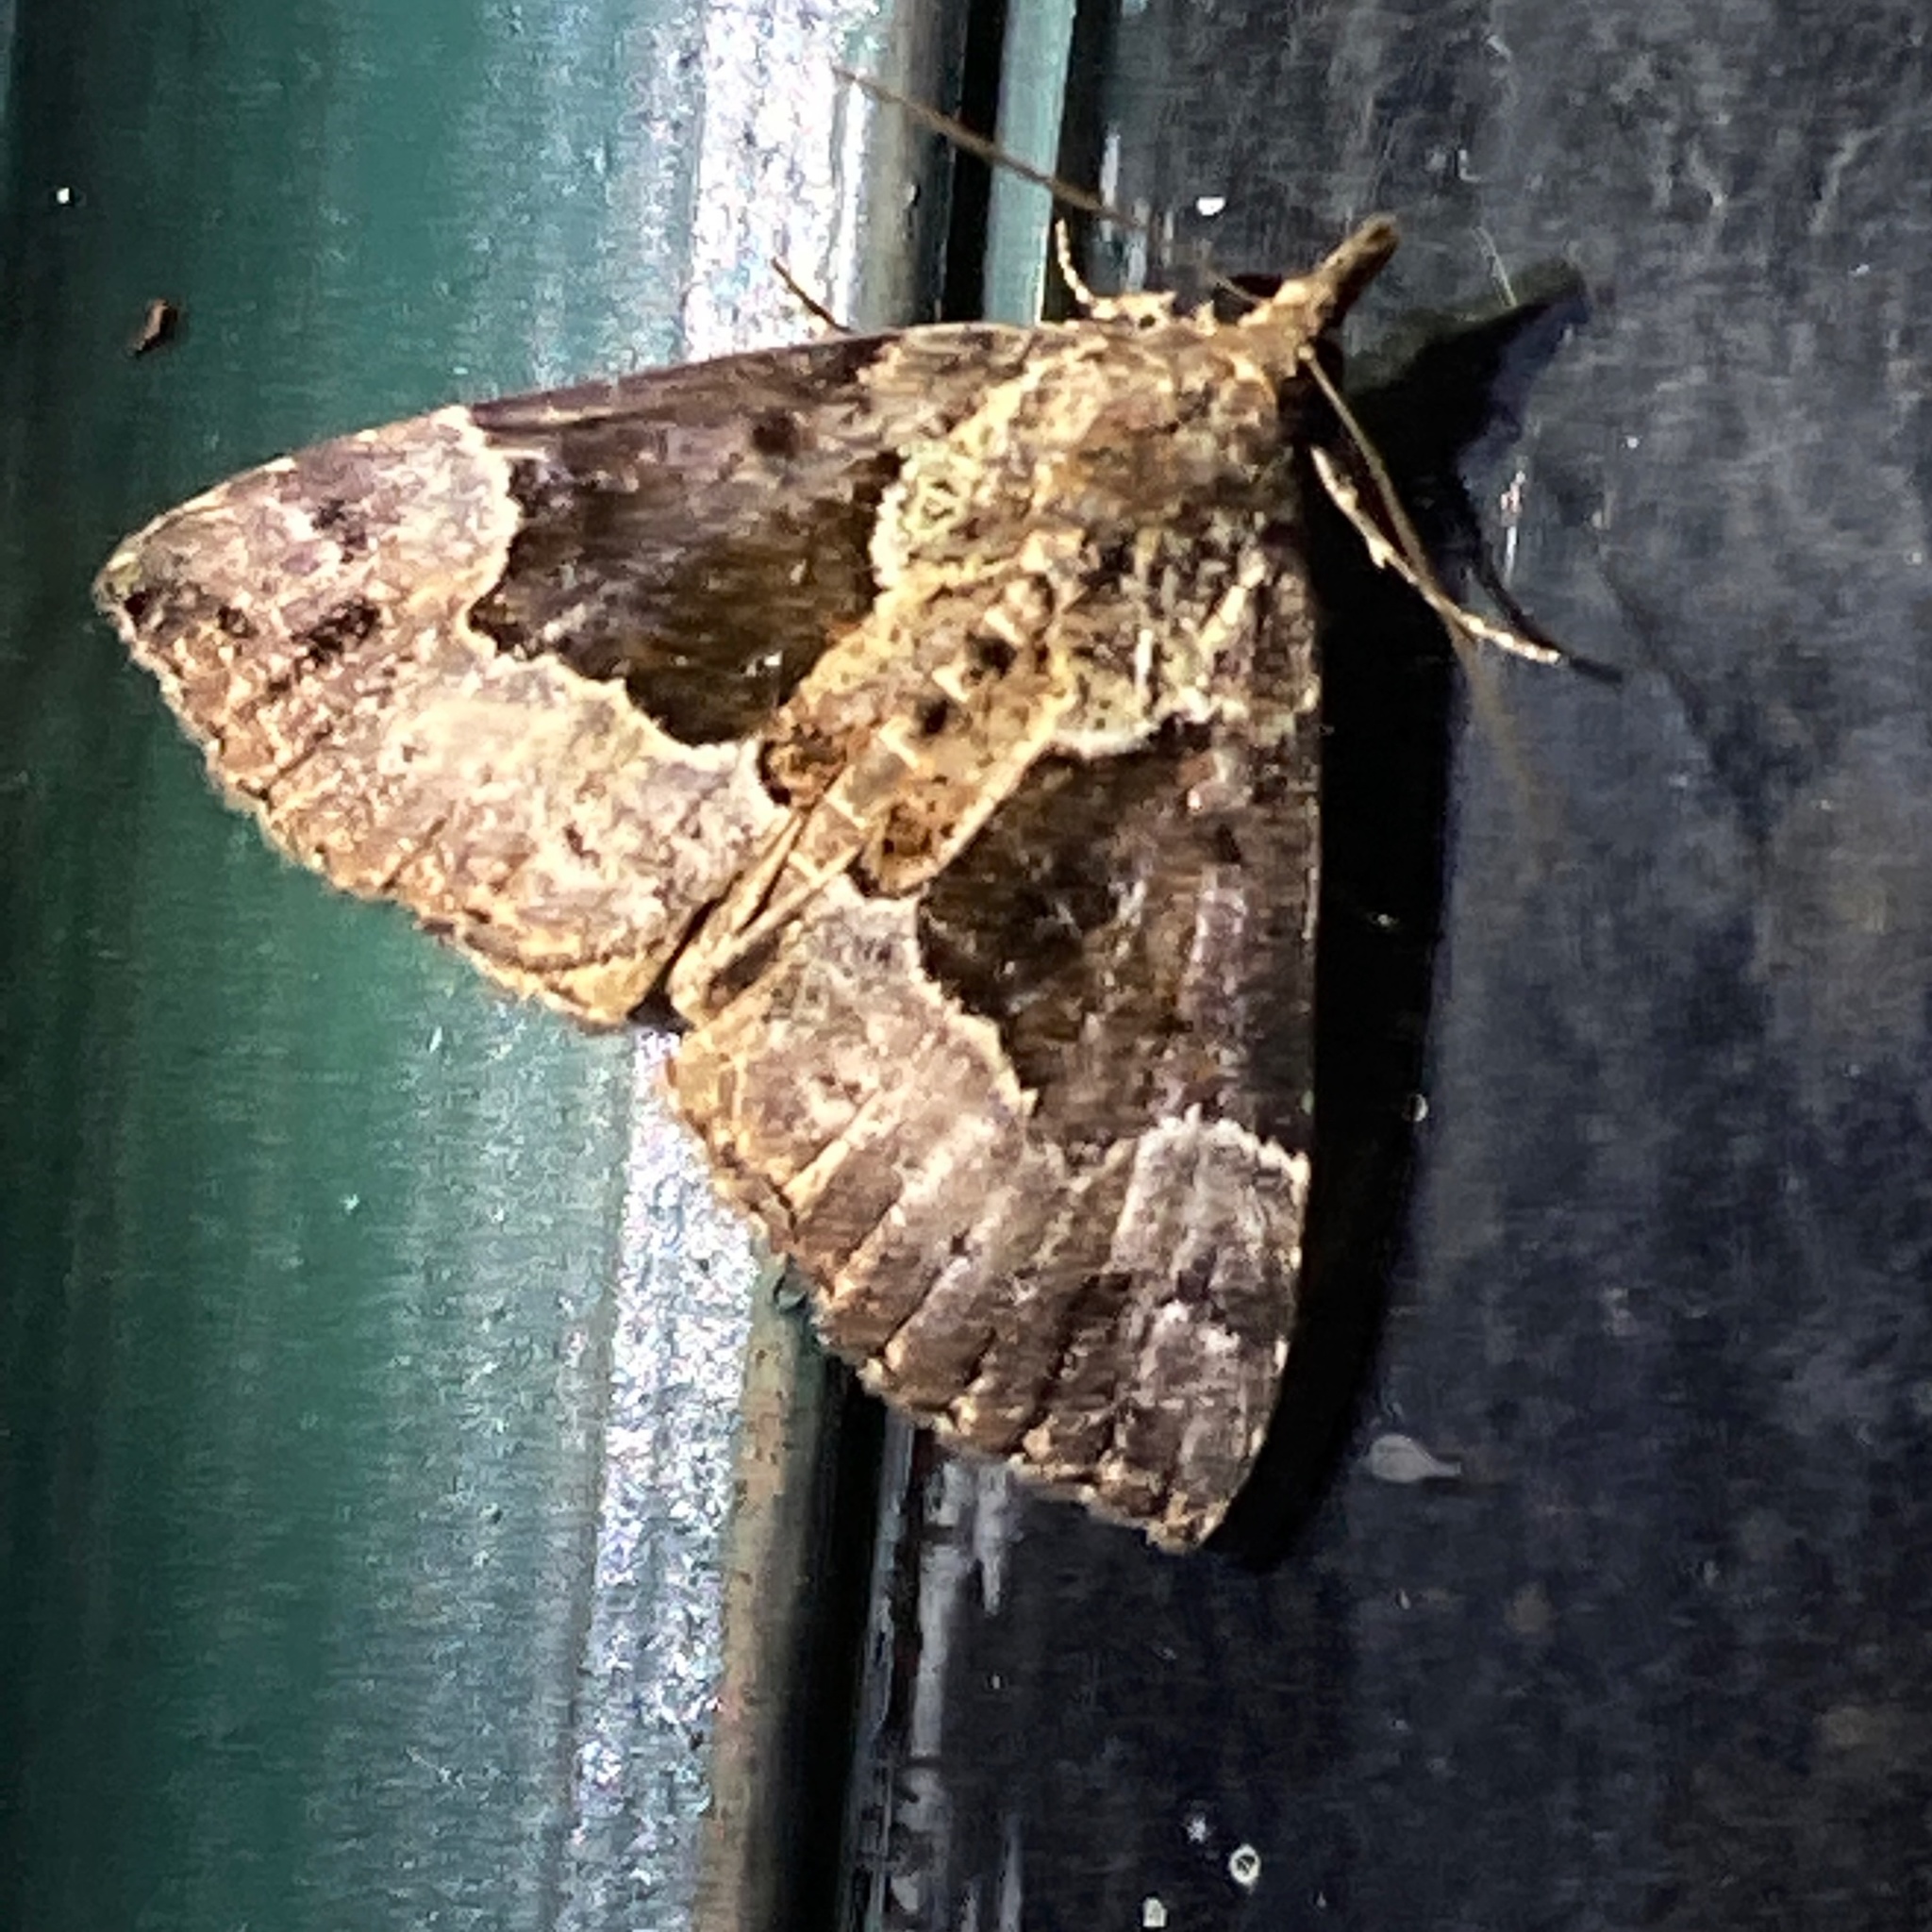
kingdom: Animalia
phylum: Arthropoda
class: Insecta
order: Lepidoptera
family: Erebidae
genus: Hypena
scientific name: Hypena palparia
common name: Mottled bomolocha moth
